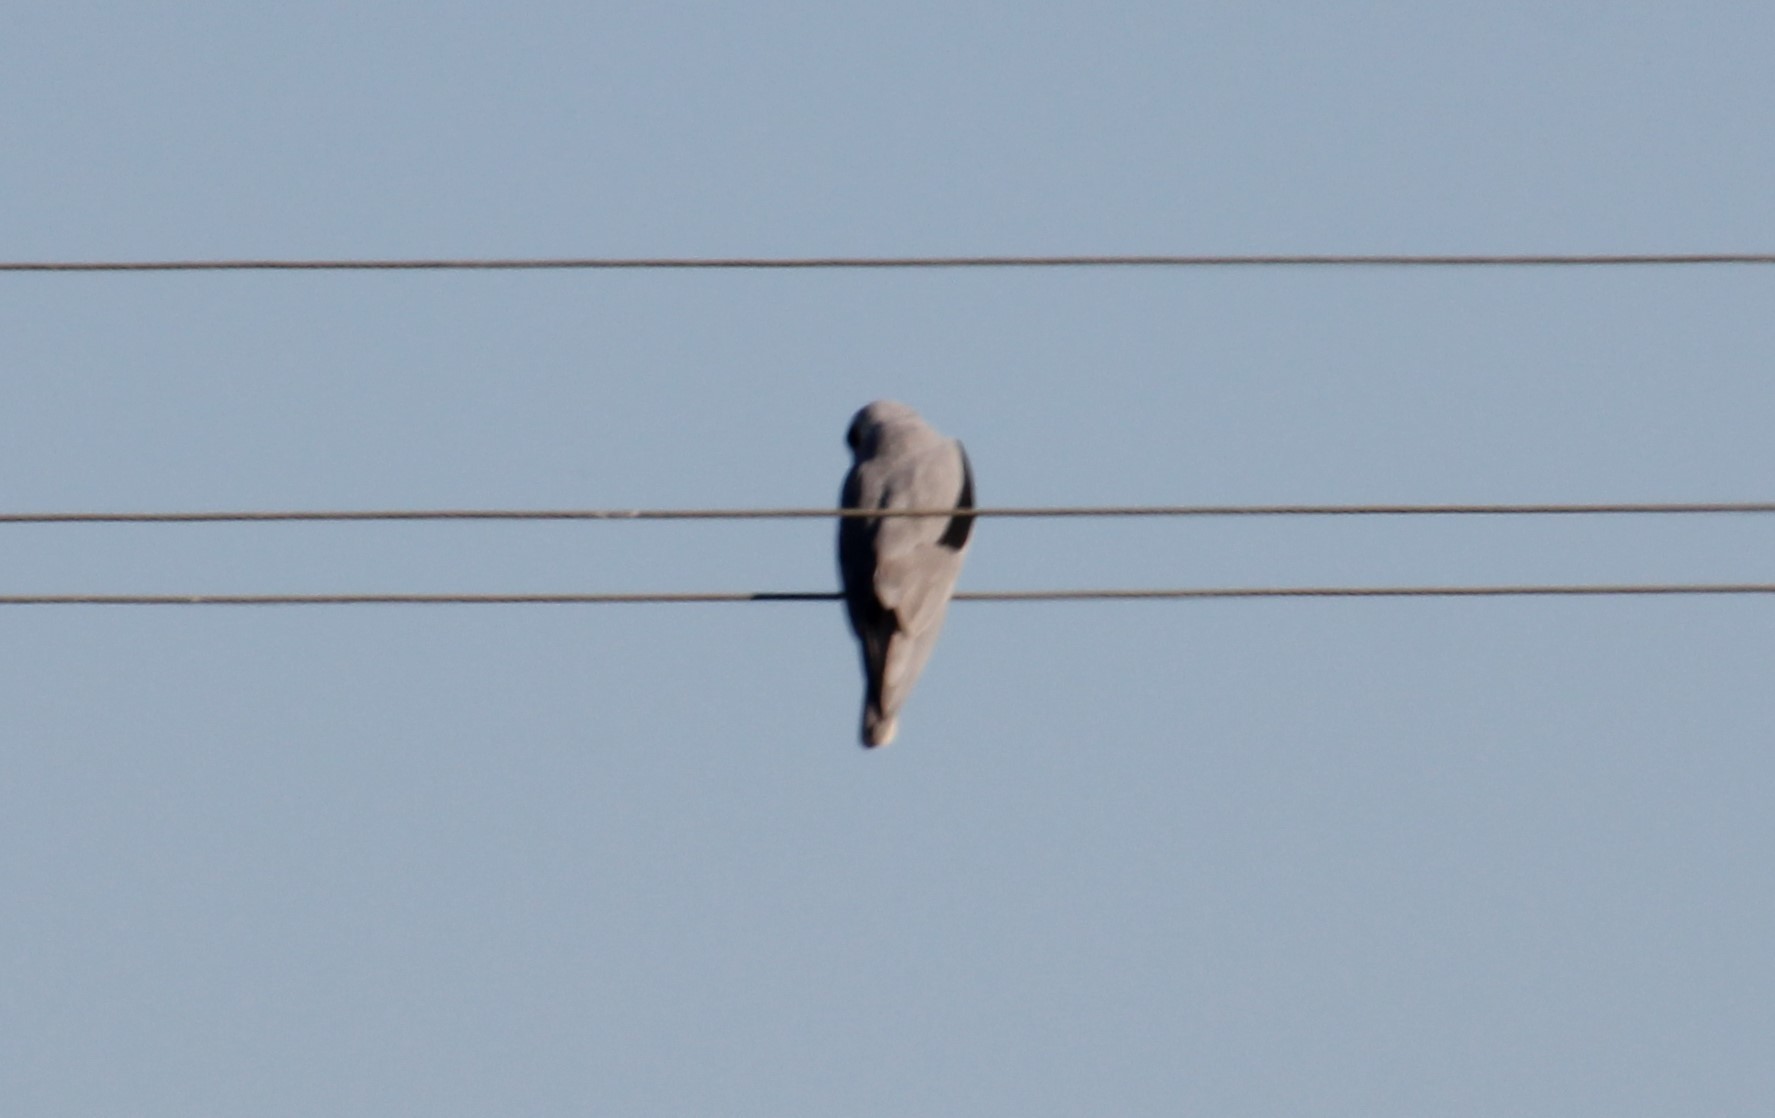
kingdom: Animalia
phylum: Chordata
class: Aves
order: Accipitriformes
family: Accipitridae
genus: Elanus
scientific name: Elanus leucurus
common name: White-tailed kite
